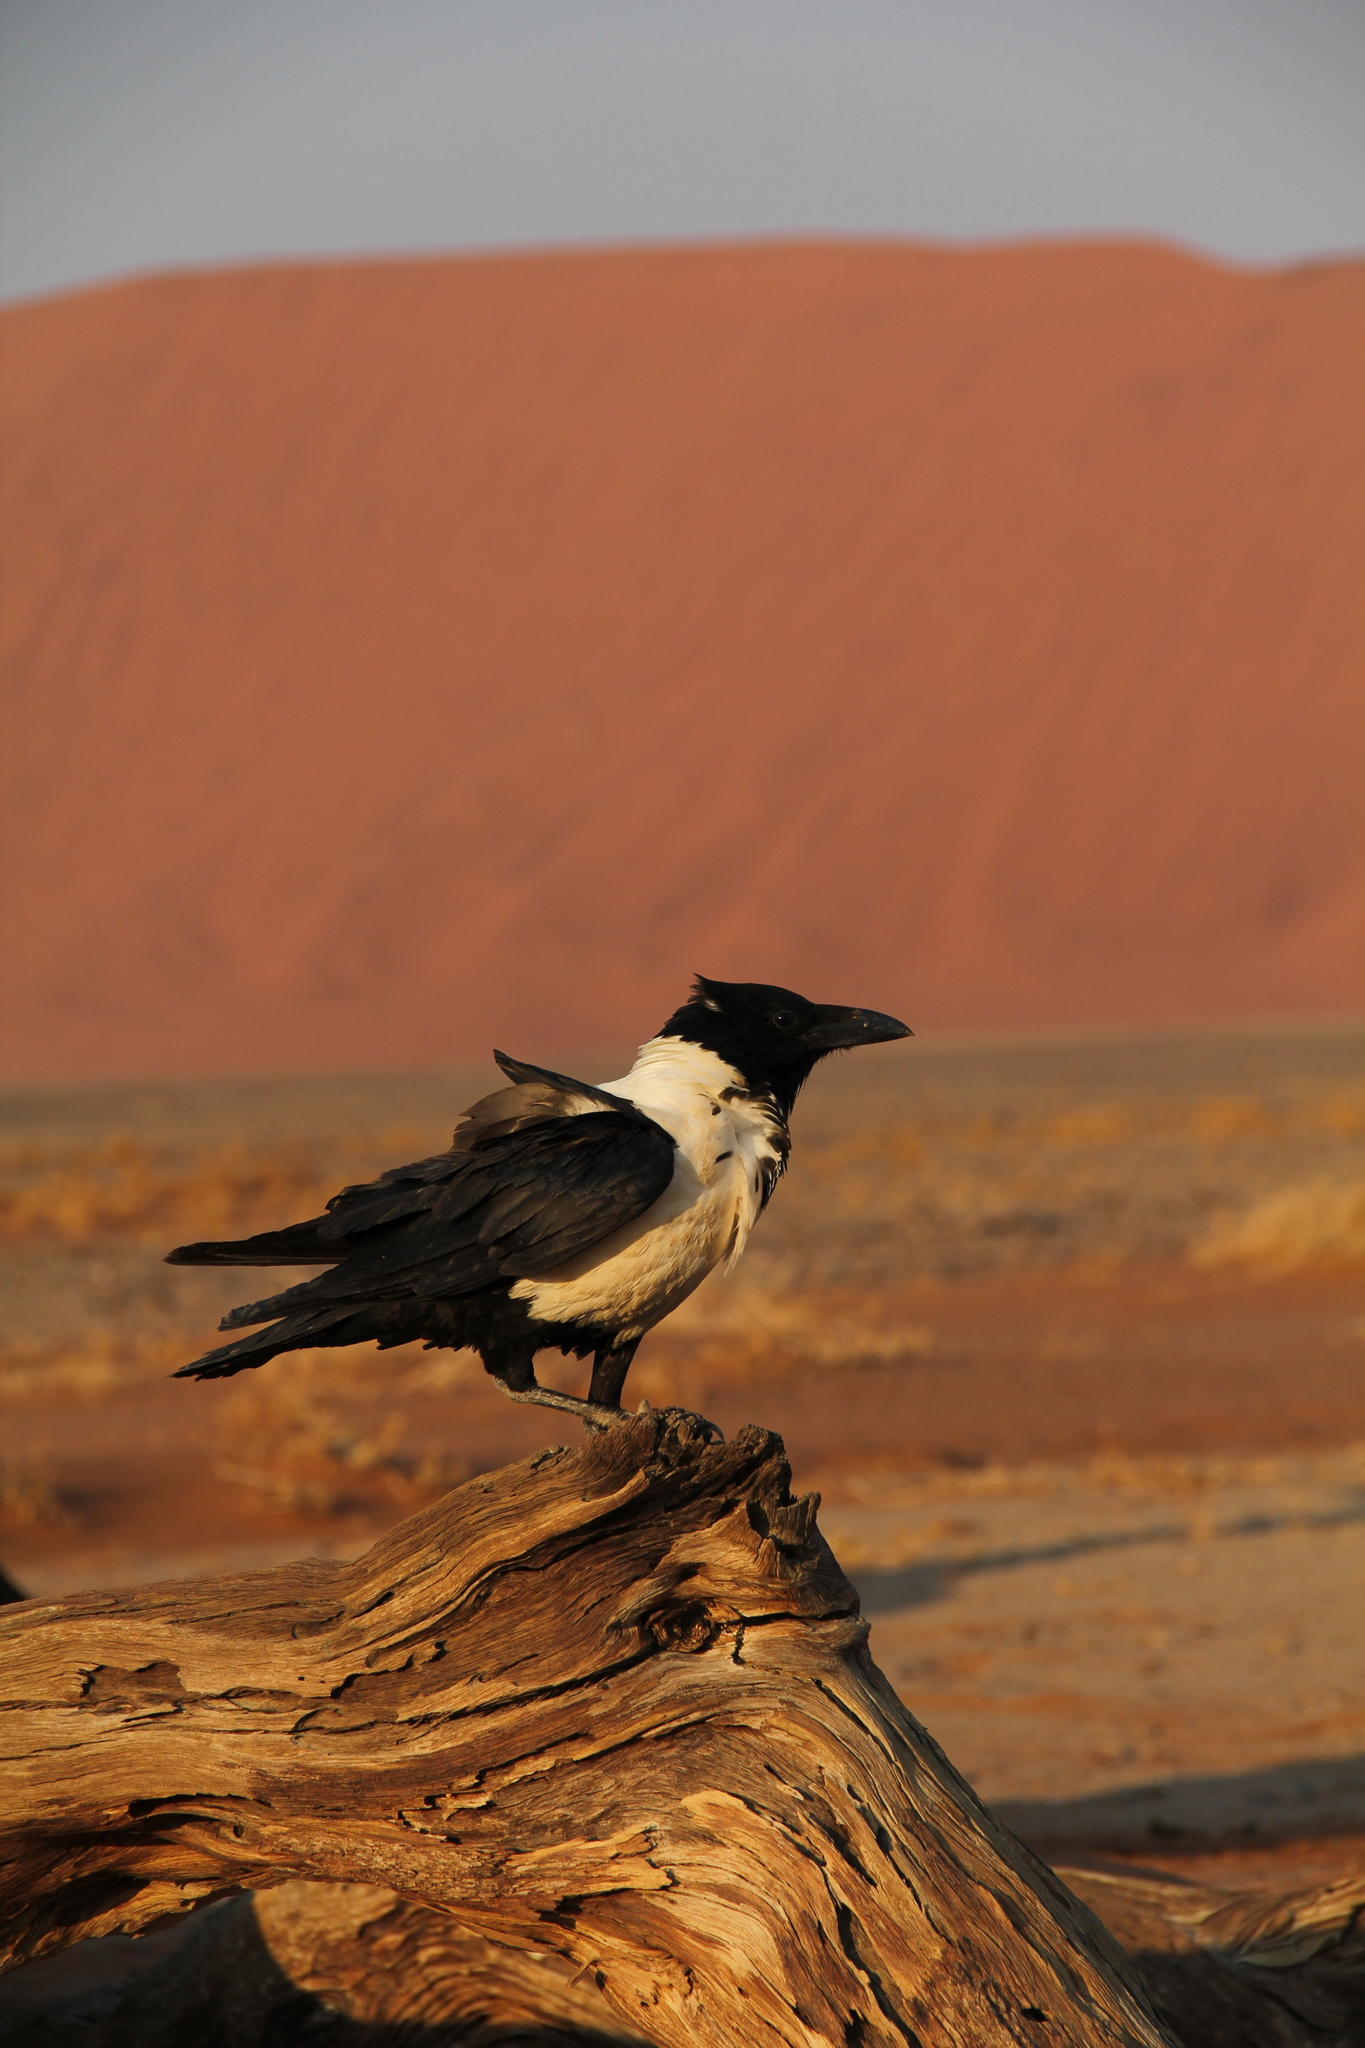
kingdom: Animalia
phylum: Chordata
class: Aves
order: Passeriformes
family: Corvidae
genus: Corvus
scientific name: Corvus albus
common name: Pied crow
